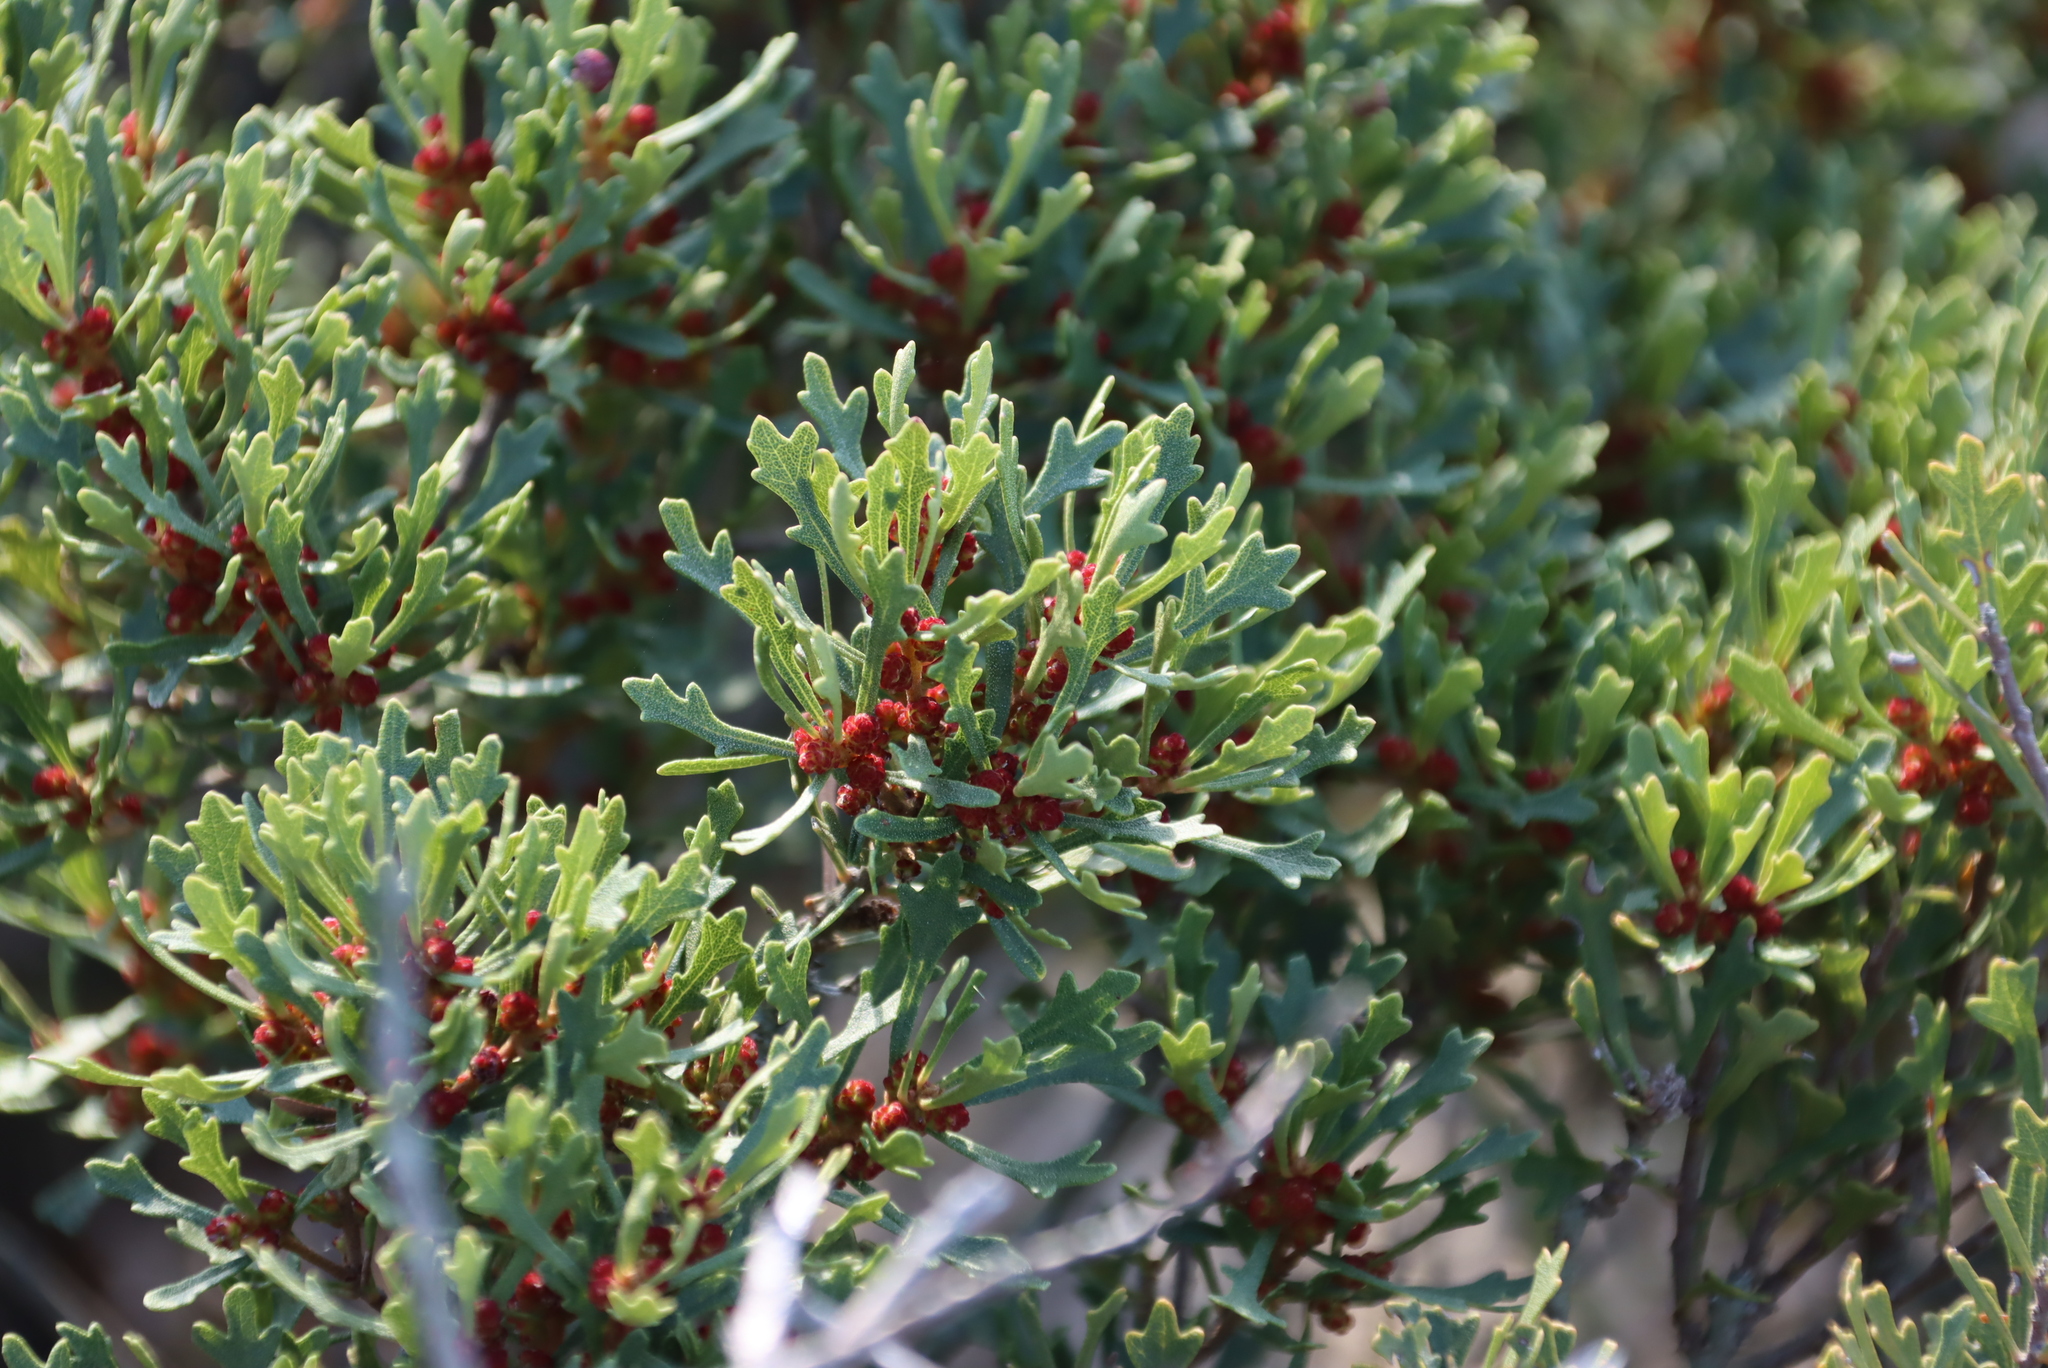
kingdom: Plantae
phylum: Tracheophyta
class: Magnoliopsida
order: Fagales
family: Myricaceae
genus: Morella
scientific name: Morella quercifolia
